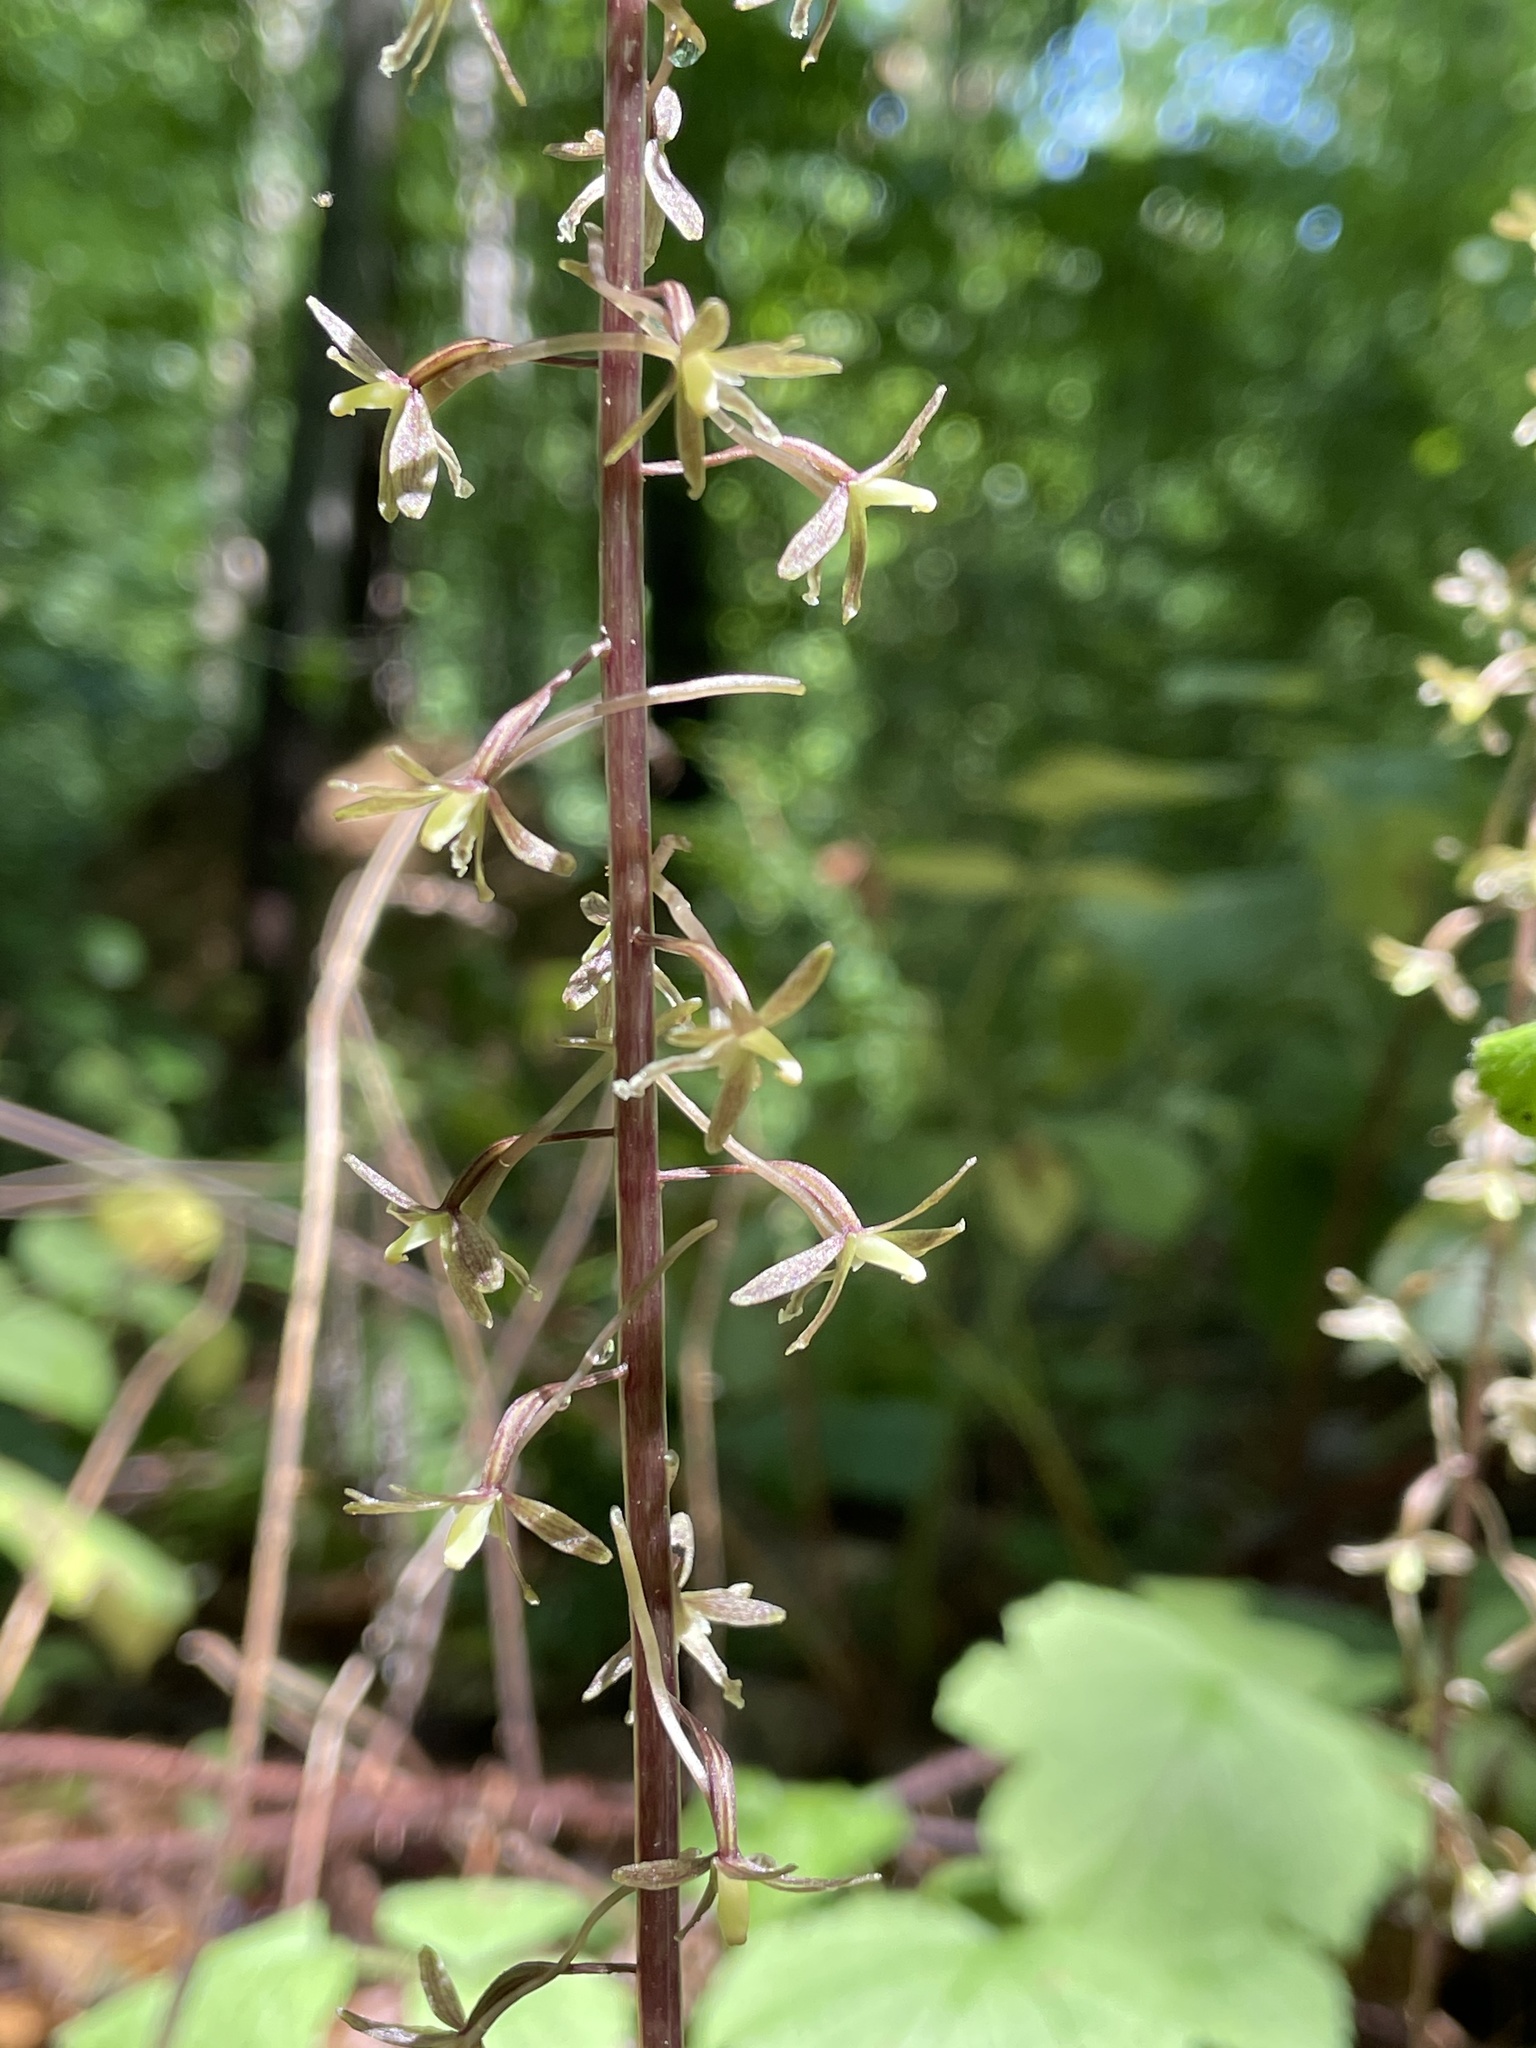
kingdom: Plantae
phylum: Tracheophyta
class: Liliopsida
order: Asparagales
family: Orchidaceae
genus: Tipularia
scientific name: Tipularia discolor
